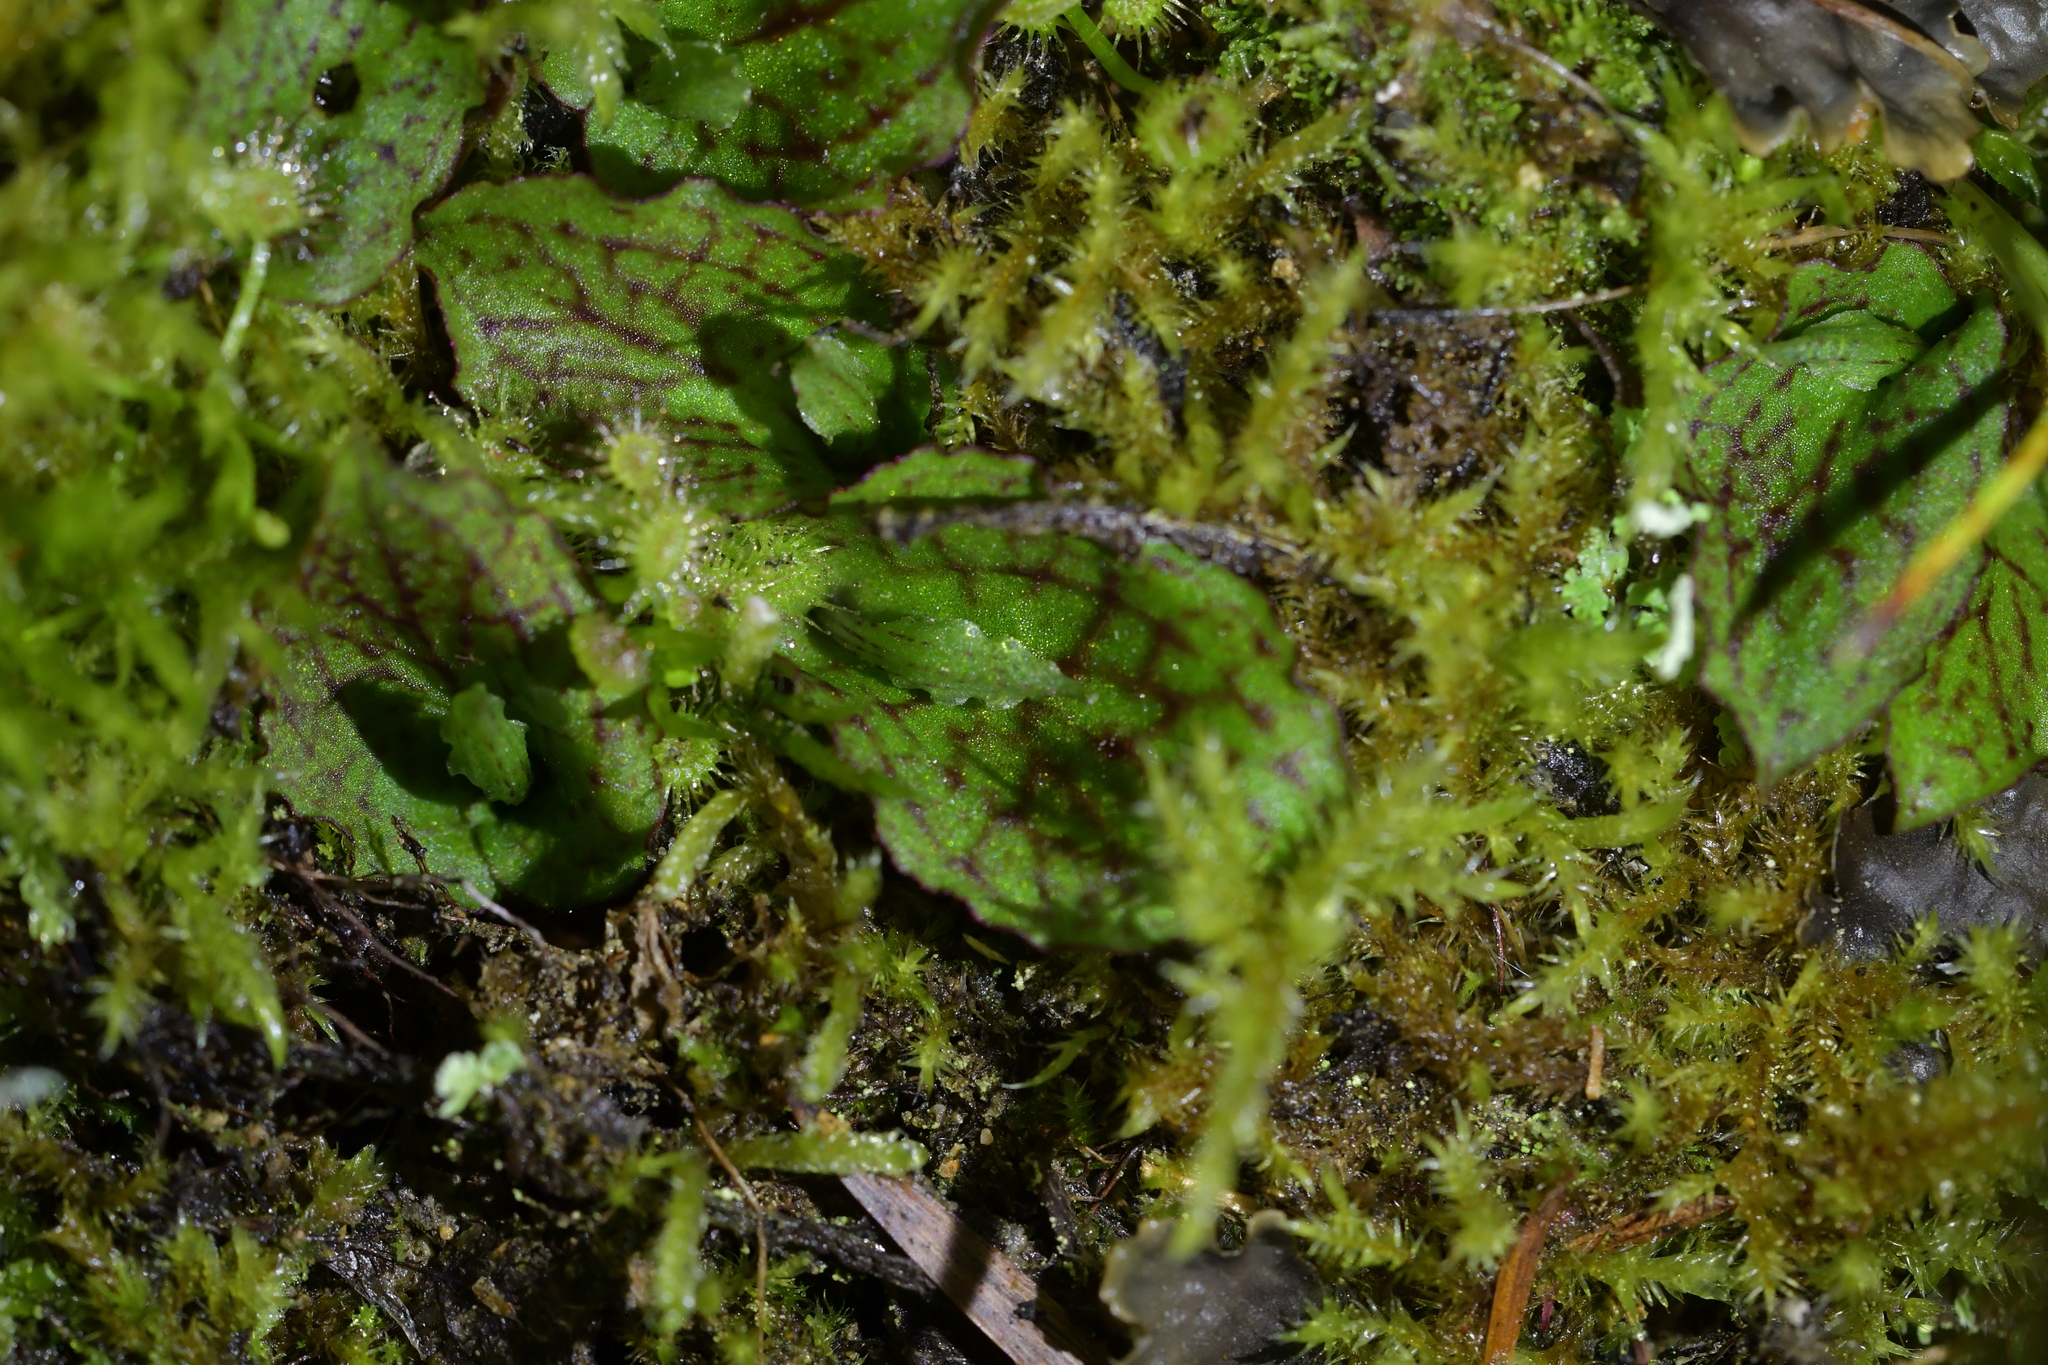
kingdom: Plantae
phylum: Tracheophyta
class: Liliopsida
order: Asparagales
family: Orchidaceae
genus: Corybas
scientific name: Corybas oblongus
